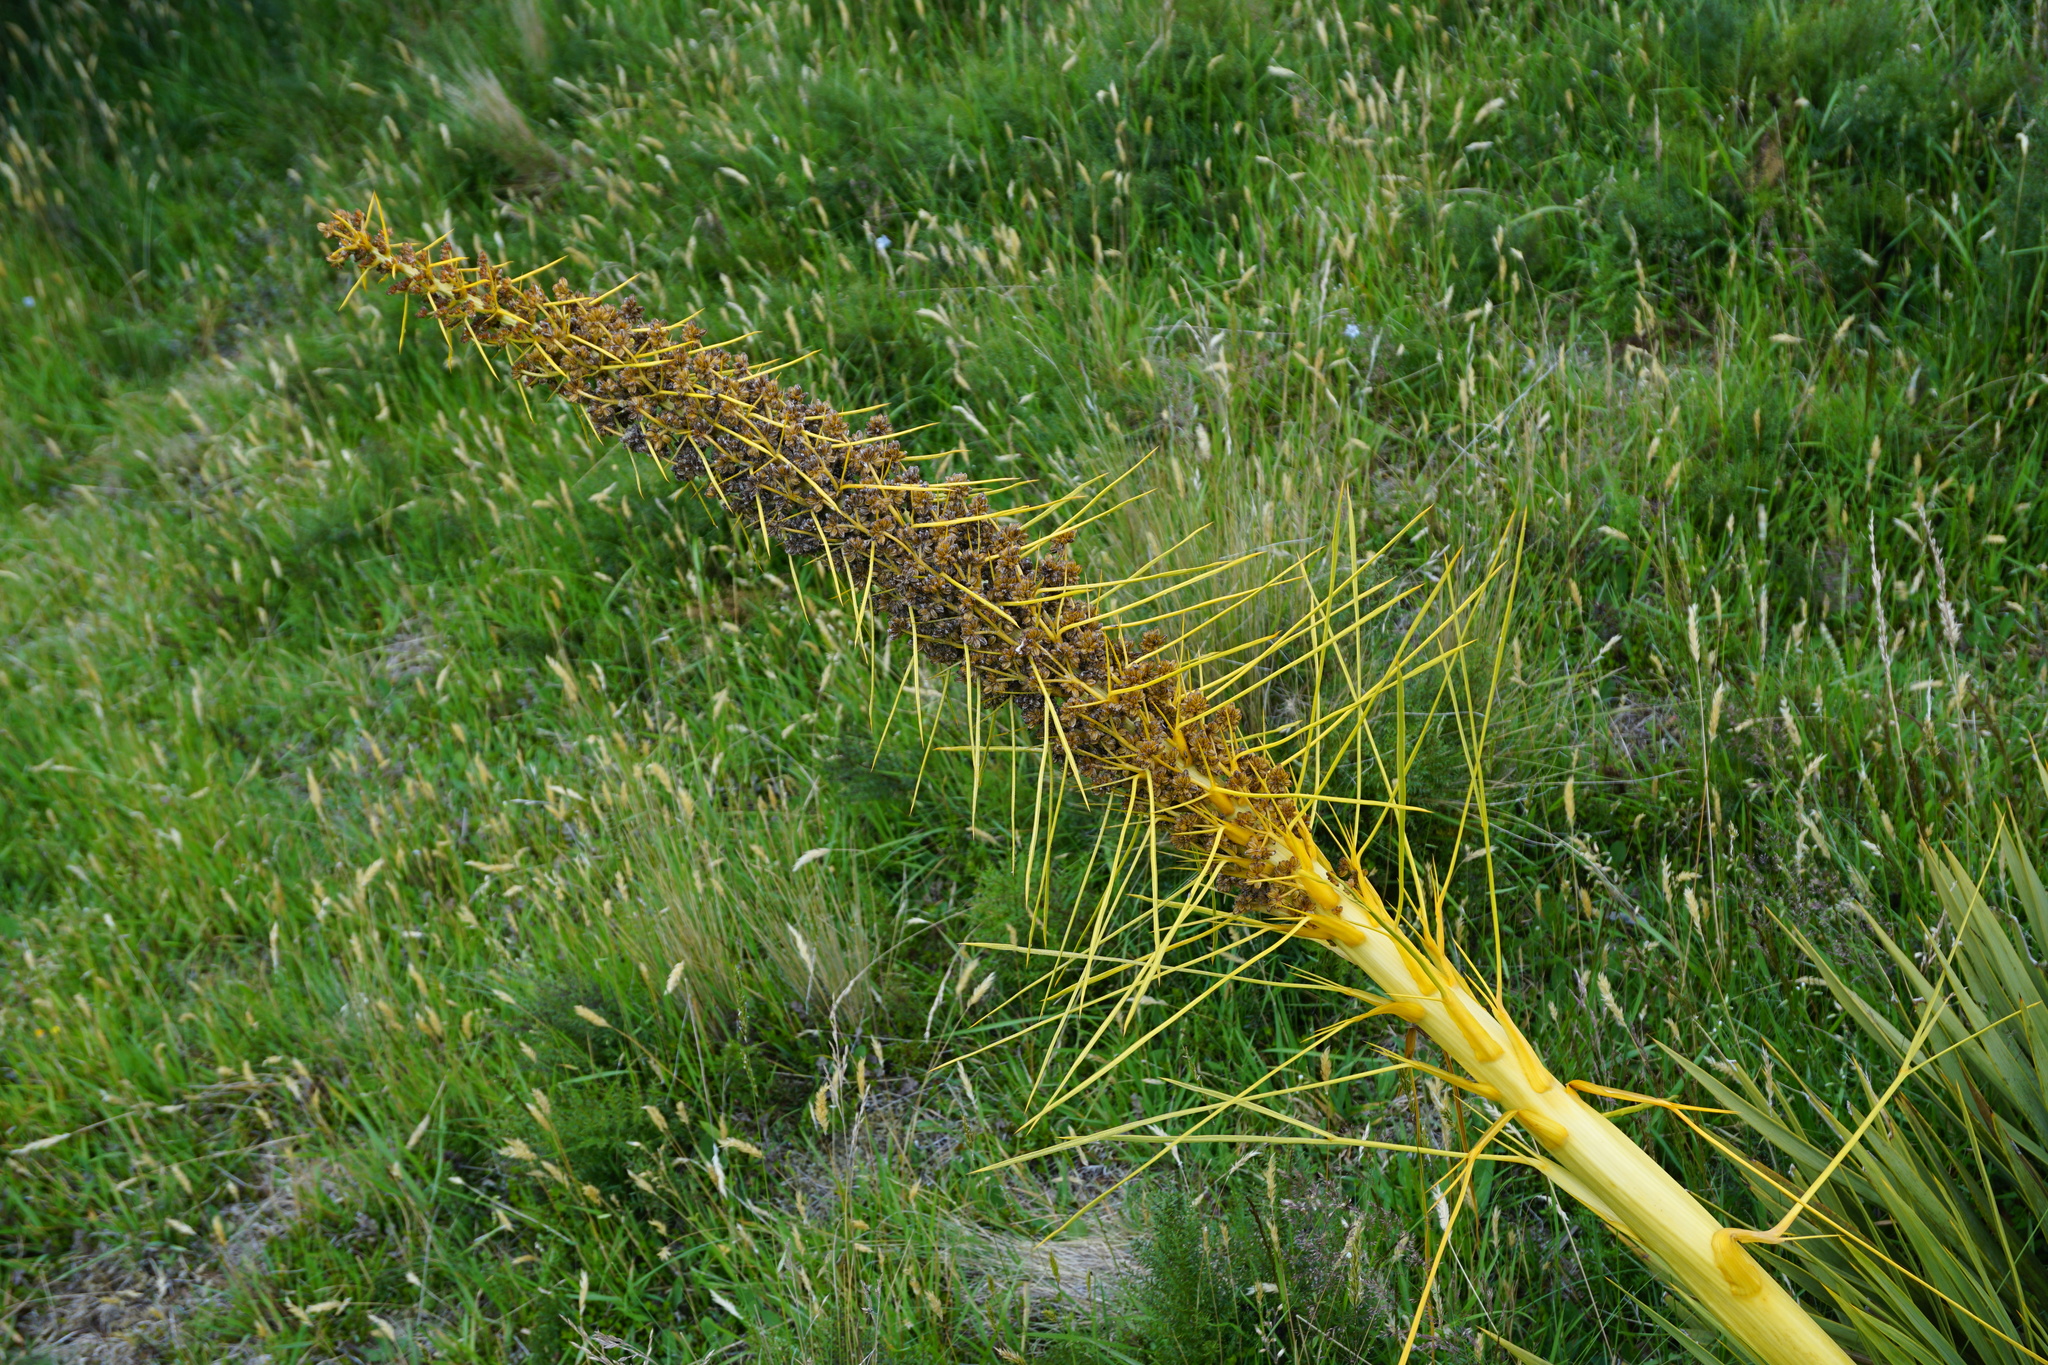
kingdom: Plantae
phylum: Tracheophyta
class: Magnoliopsida
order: Apiales
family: Apiaceae
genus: Aciphylla
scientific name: Aciphylla scott-thomsonii
